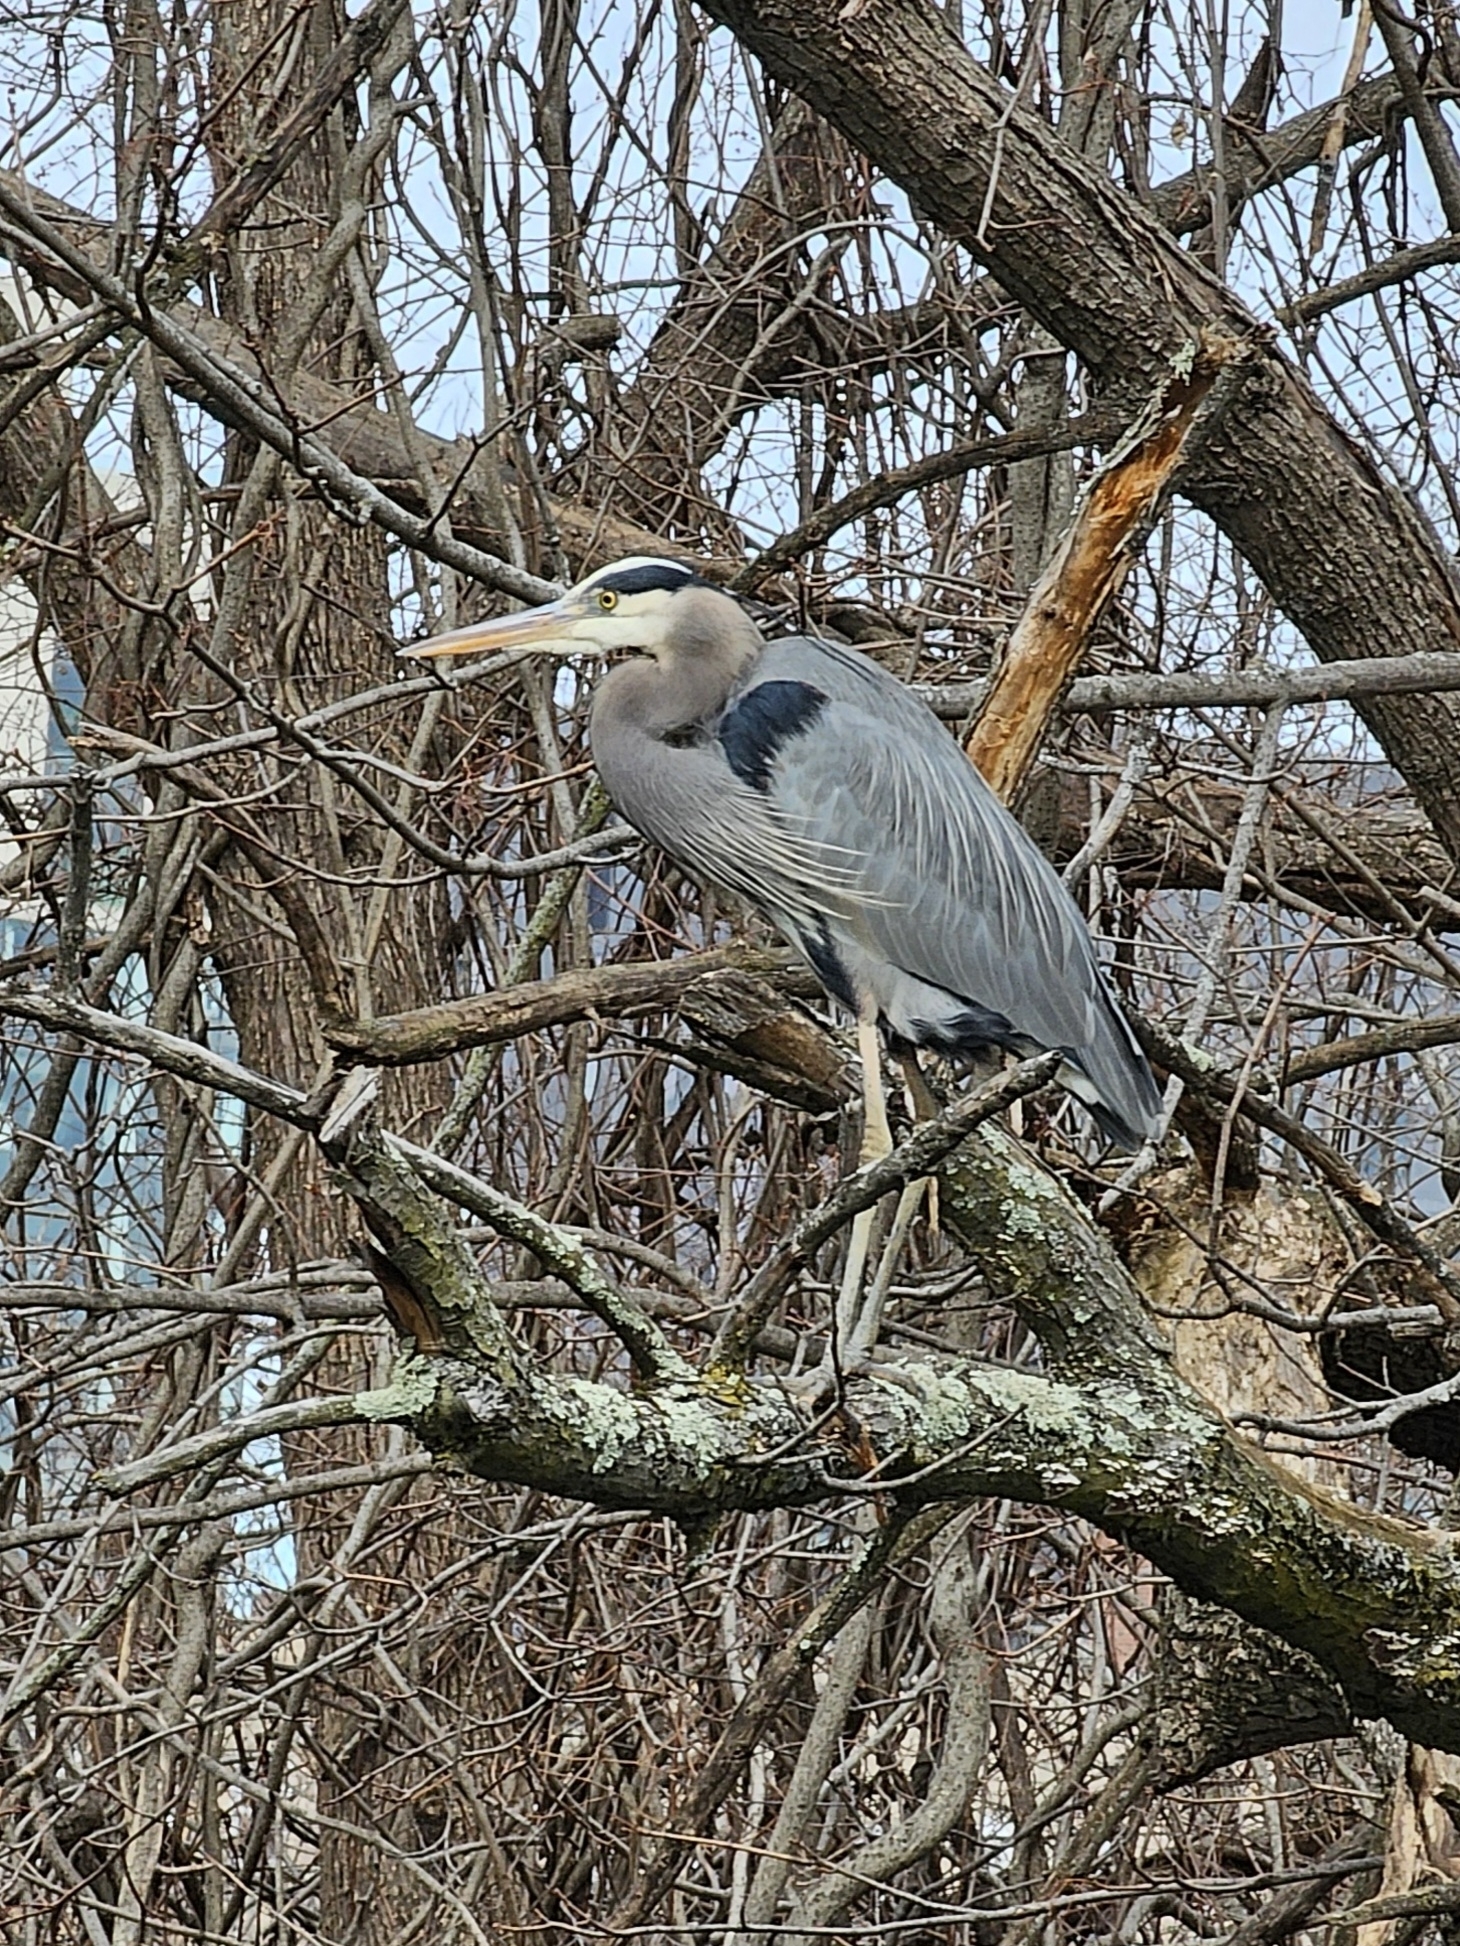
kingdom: Animalia
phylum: Chordata
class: Aves
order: Pelecaniformes
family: Ardeidae
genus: Ardea
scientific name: Ardea herodias
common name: Great blue heron
